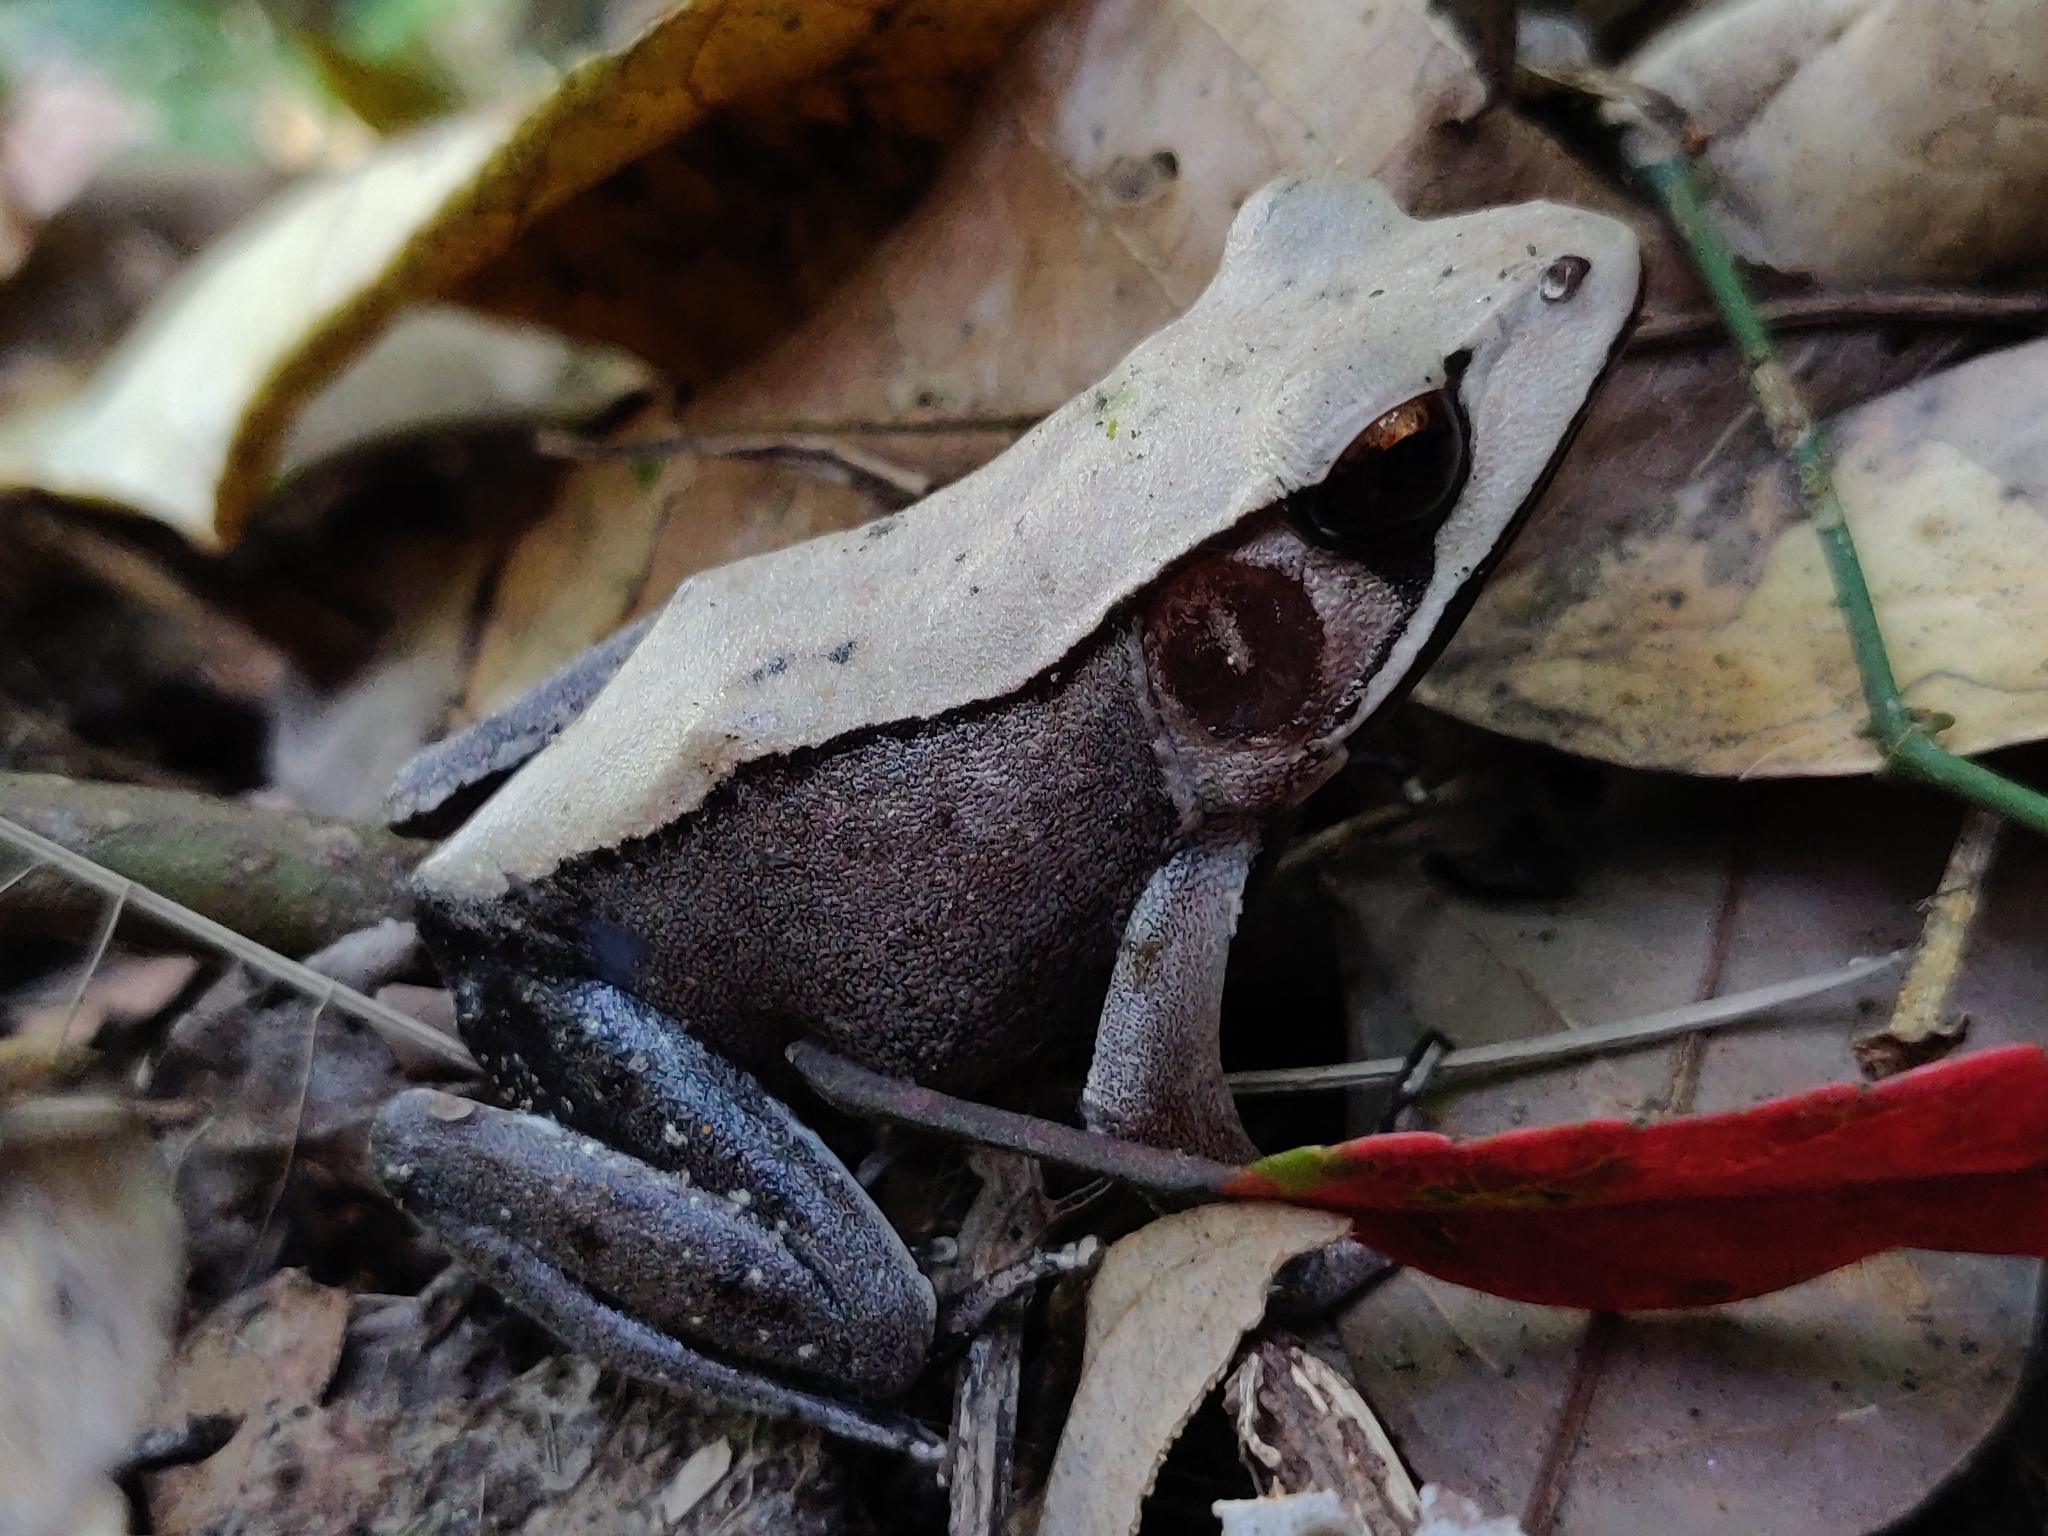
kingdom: Animalia
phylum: Chordata
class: Amphibia
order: Anura
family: Ranidae
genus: Clinotarsus
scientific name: Clinotarsus curtipes
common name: Bicoloured frog
